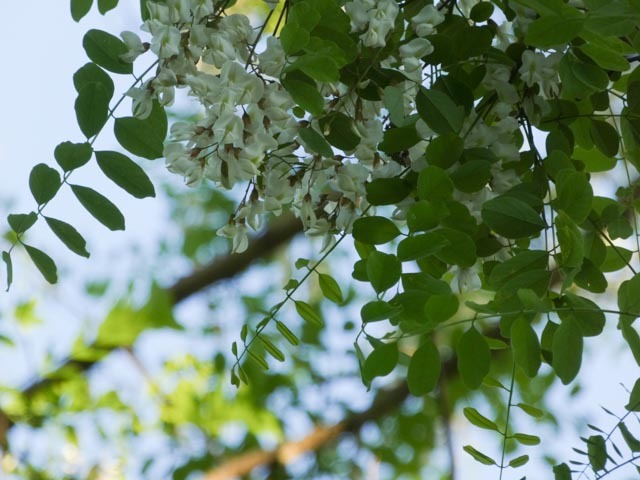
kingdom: Plantae
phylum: Tracheophyta
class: Magnoliopsida
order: Fabales
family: Fabaceae
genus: Robinia
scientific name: Robinia pseudoacacia
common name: Black locust
